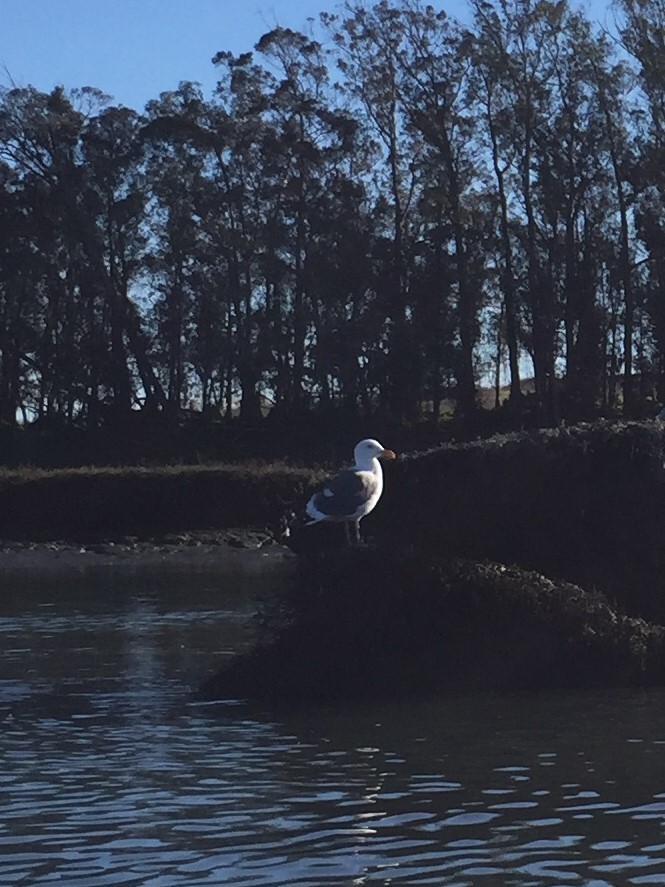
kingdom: Animalia
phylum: Chordata
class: Aves
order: Charadriiformes
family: Laridae
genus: Larus
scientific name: Larus occidentalis
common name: Western gull
